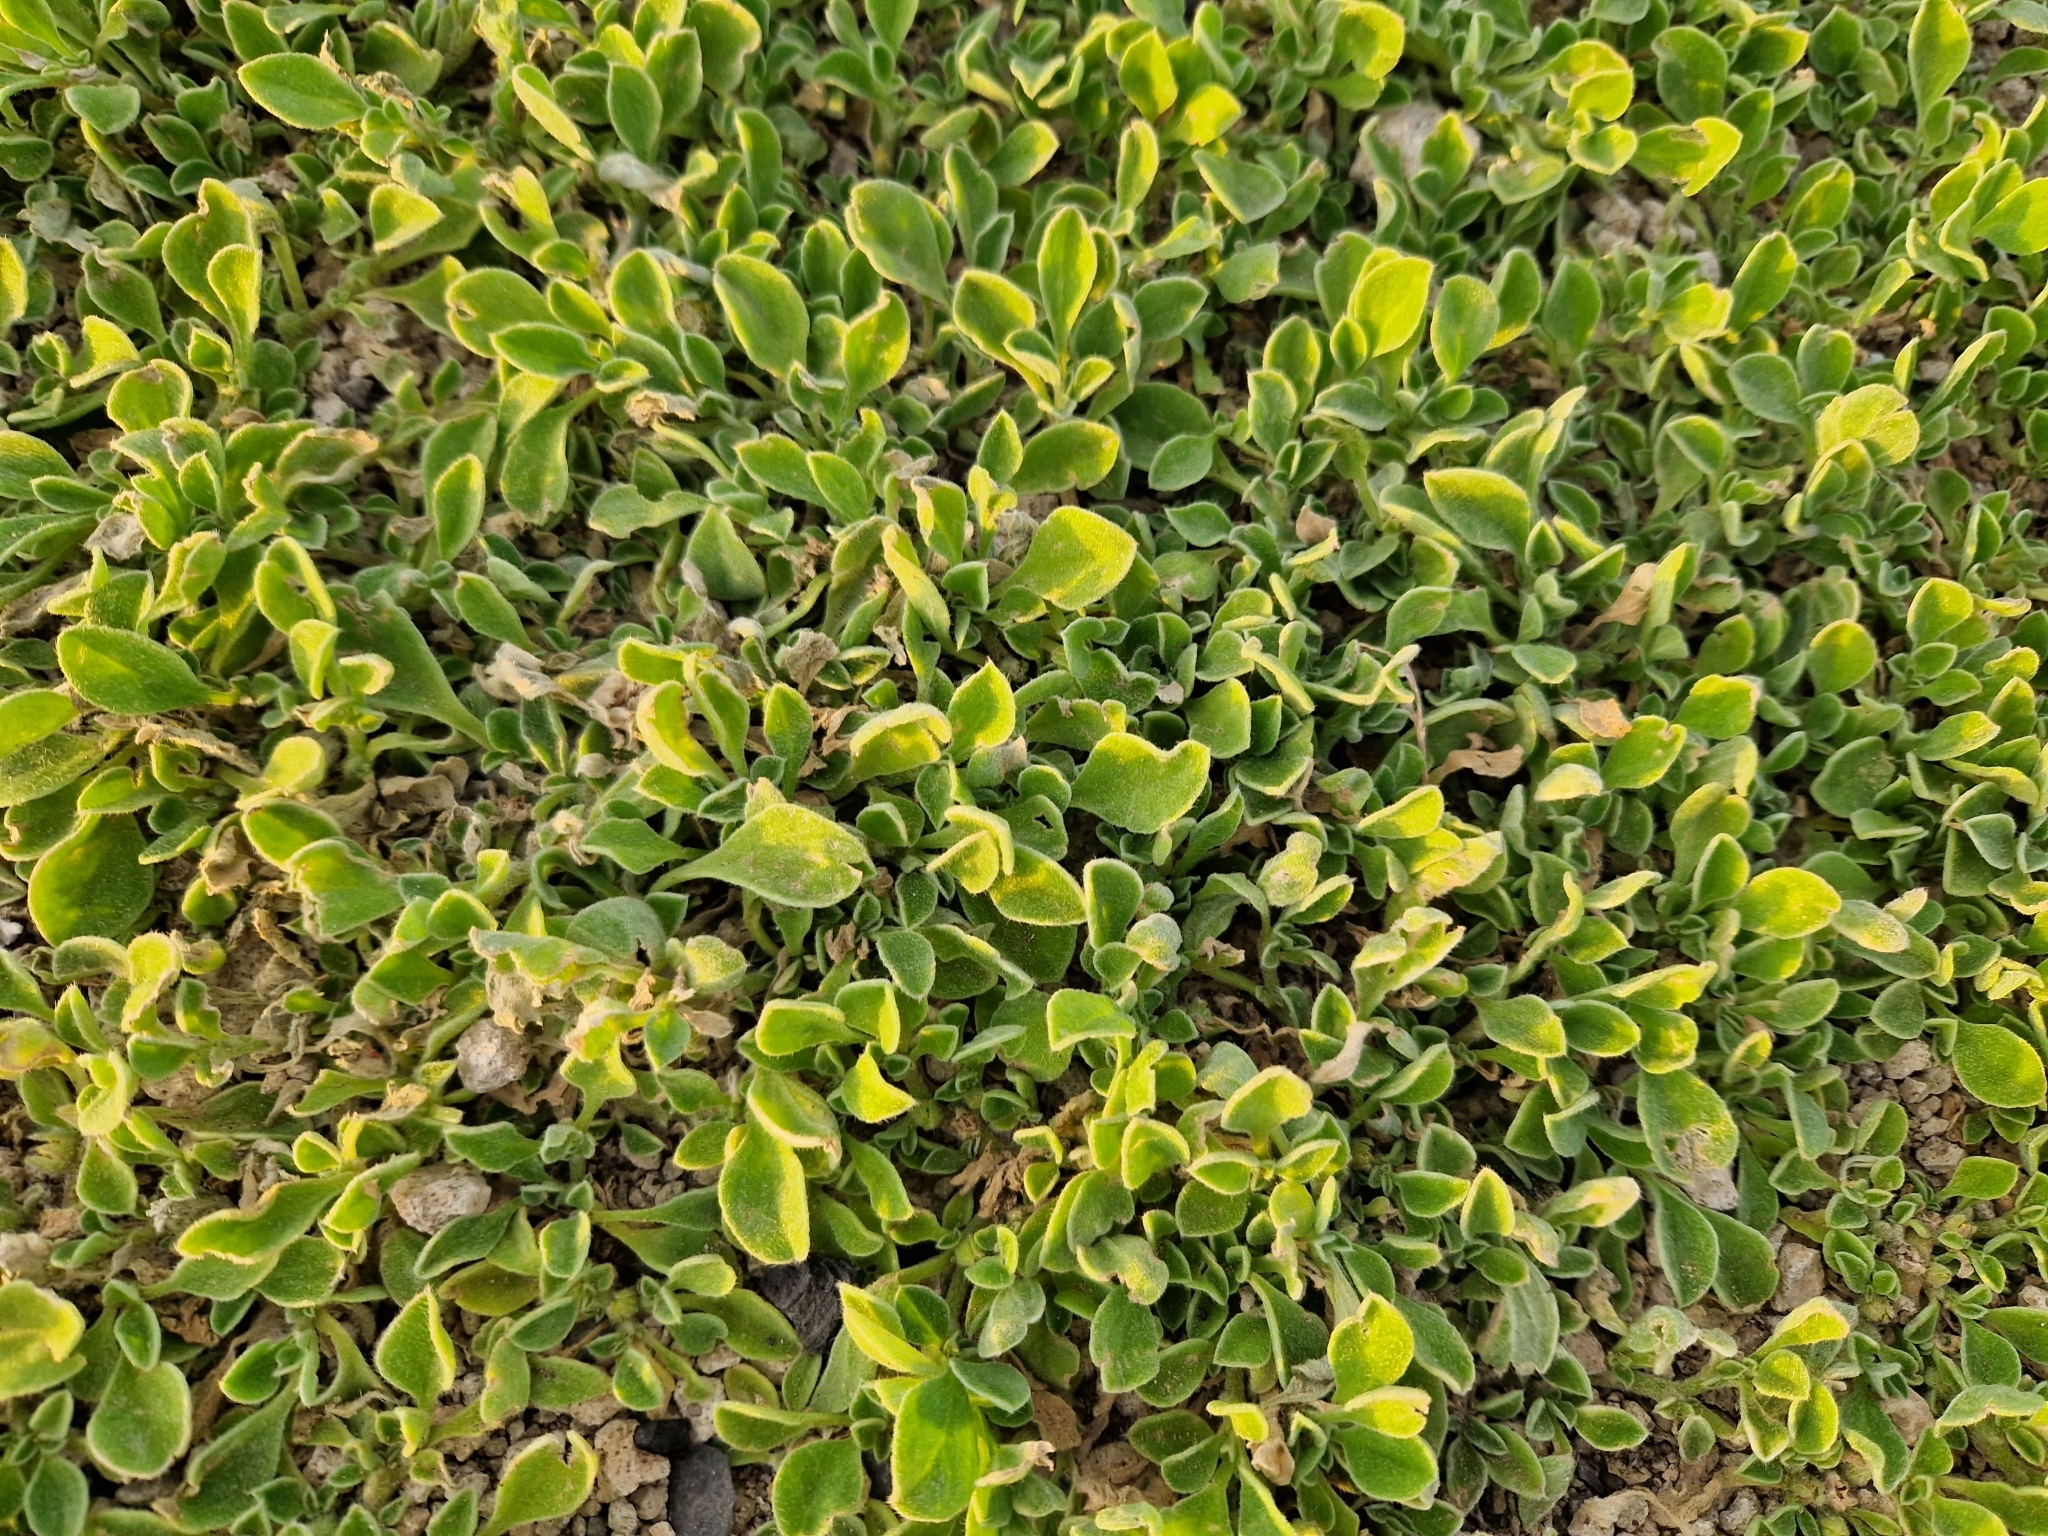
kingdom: Plantae
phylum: Tracheophyta
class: Magnoliopsida
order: Caryophyllales
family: Aizoaceae
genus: Aizoon
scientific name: Aizoon canariense
